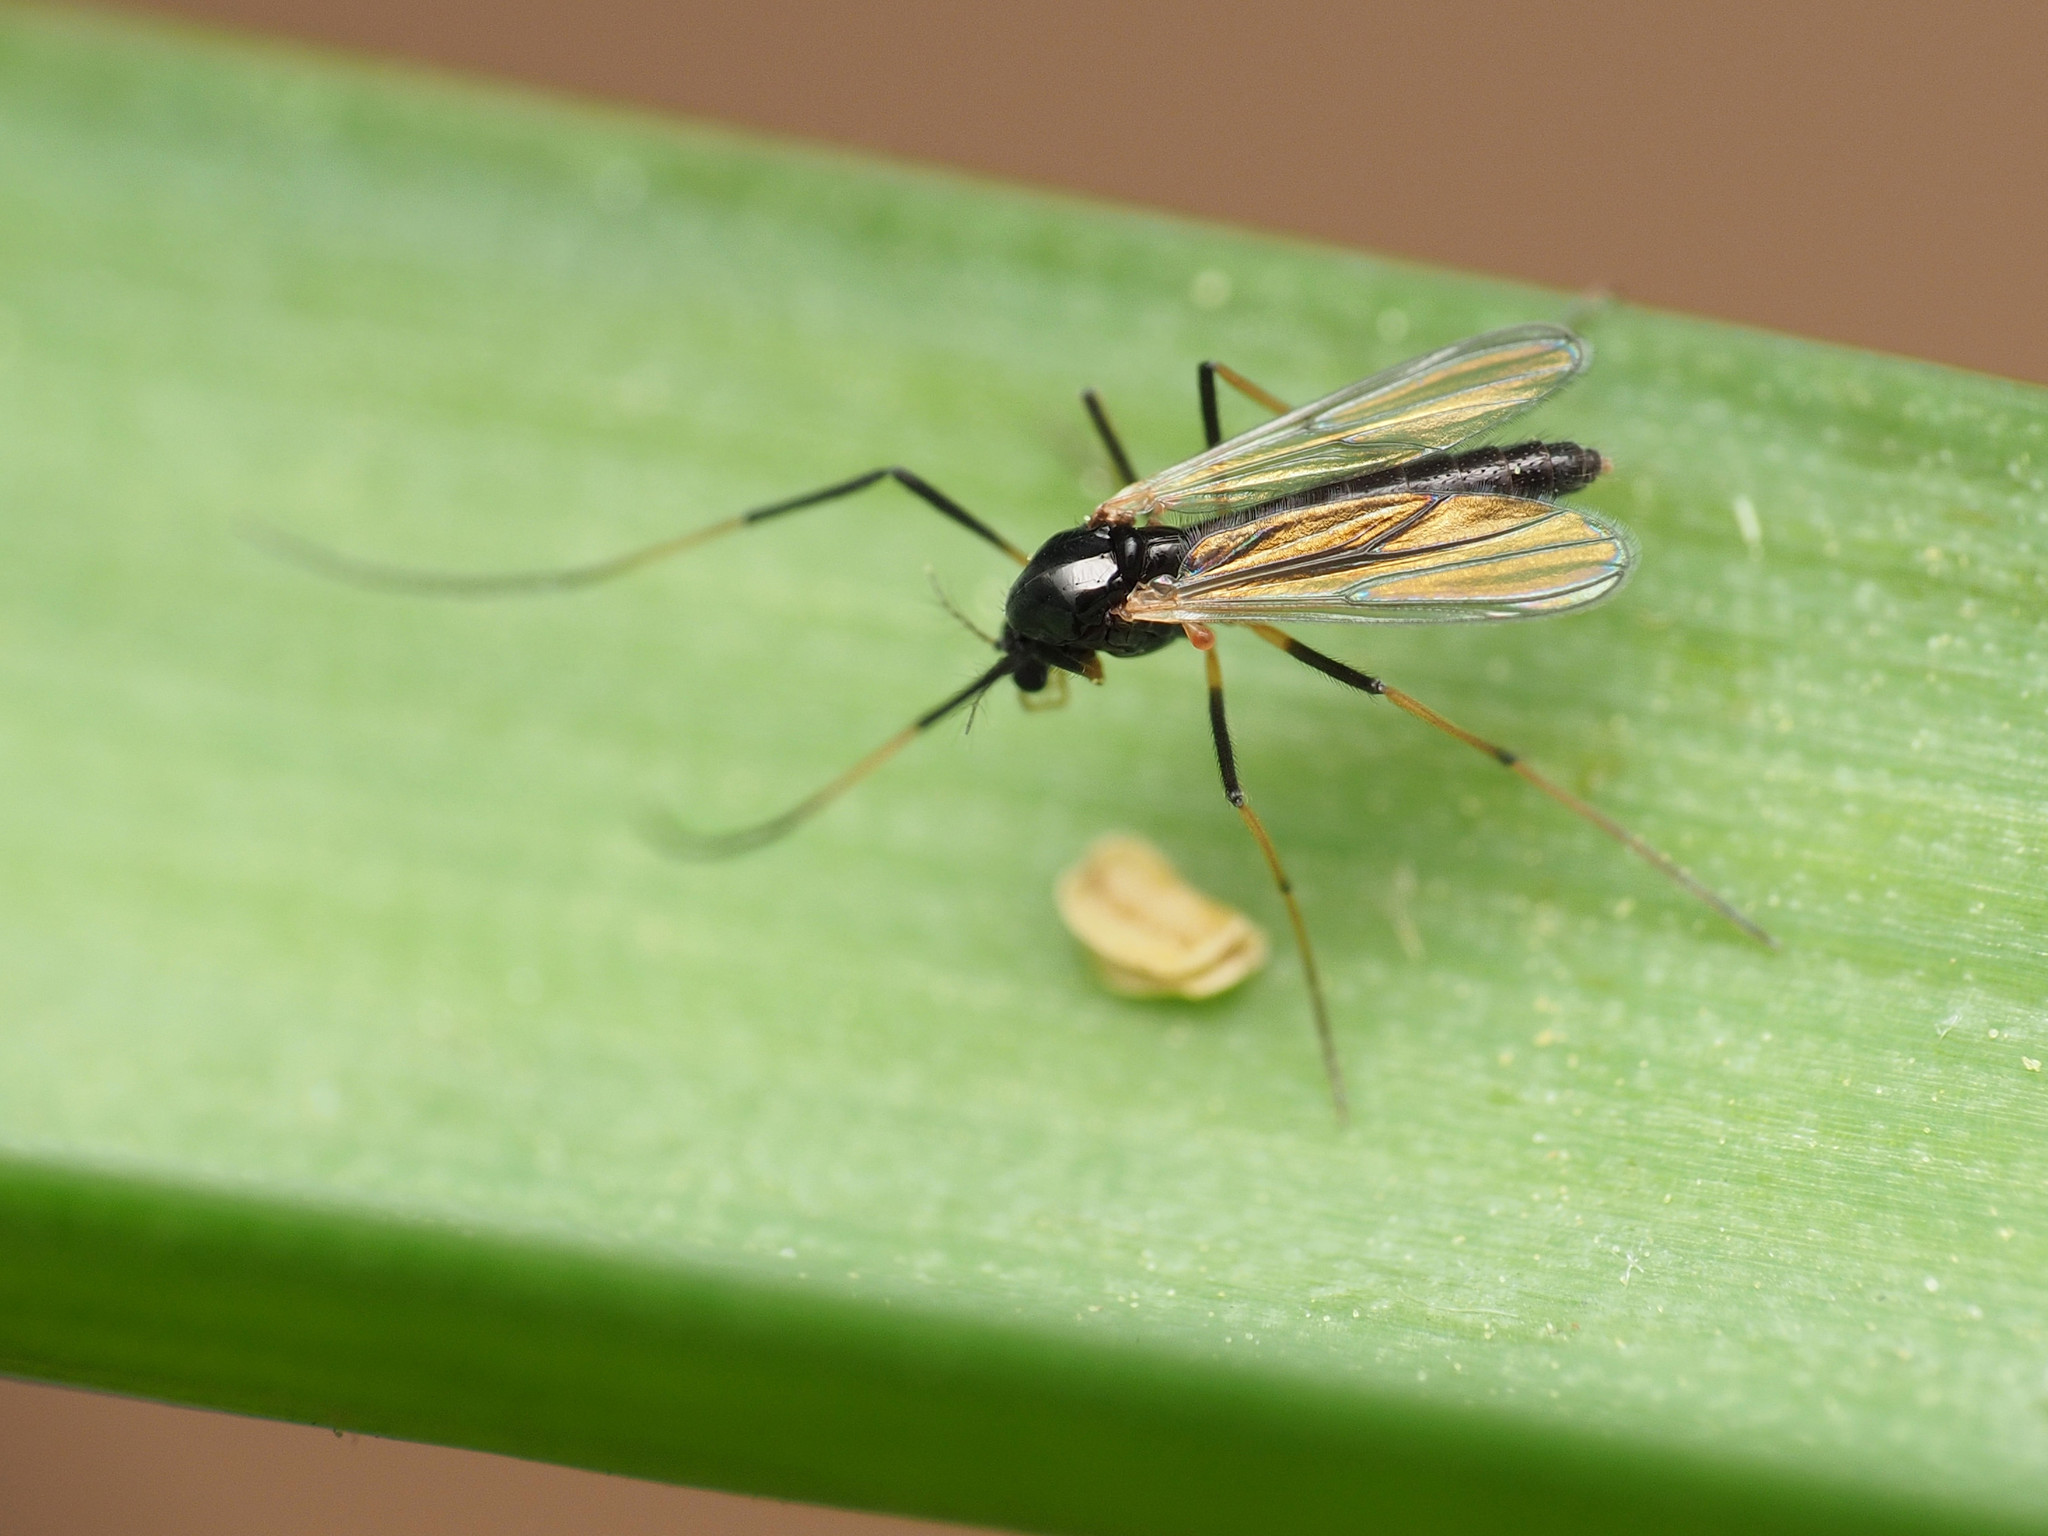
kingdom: Animalia
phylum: Arthropoda
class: Insecta
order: Diptera
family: Chironomidae
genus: Paratendipes
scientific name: Paratendipes albimanus
